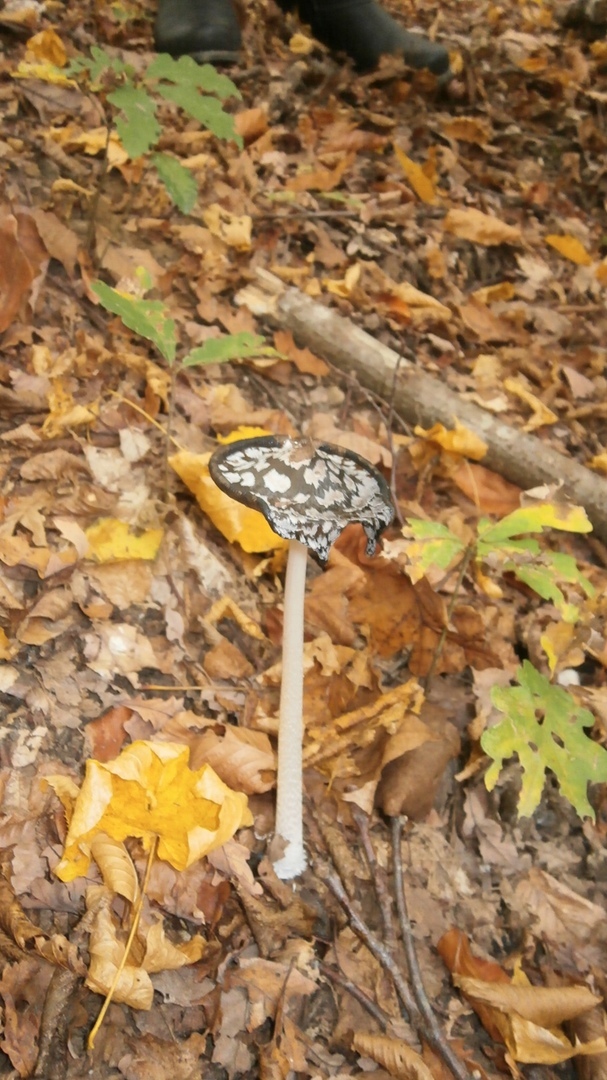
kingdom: Fungi
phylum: Basidiomycota
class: Agaricomycetes
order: Agaricales
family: Psathyrellaceae
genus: Coprinopsis
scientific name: Coprinopsis picacea
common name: Magpie inkcap
